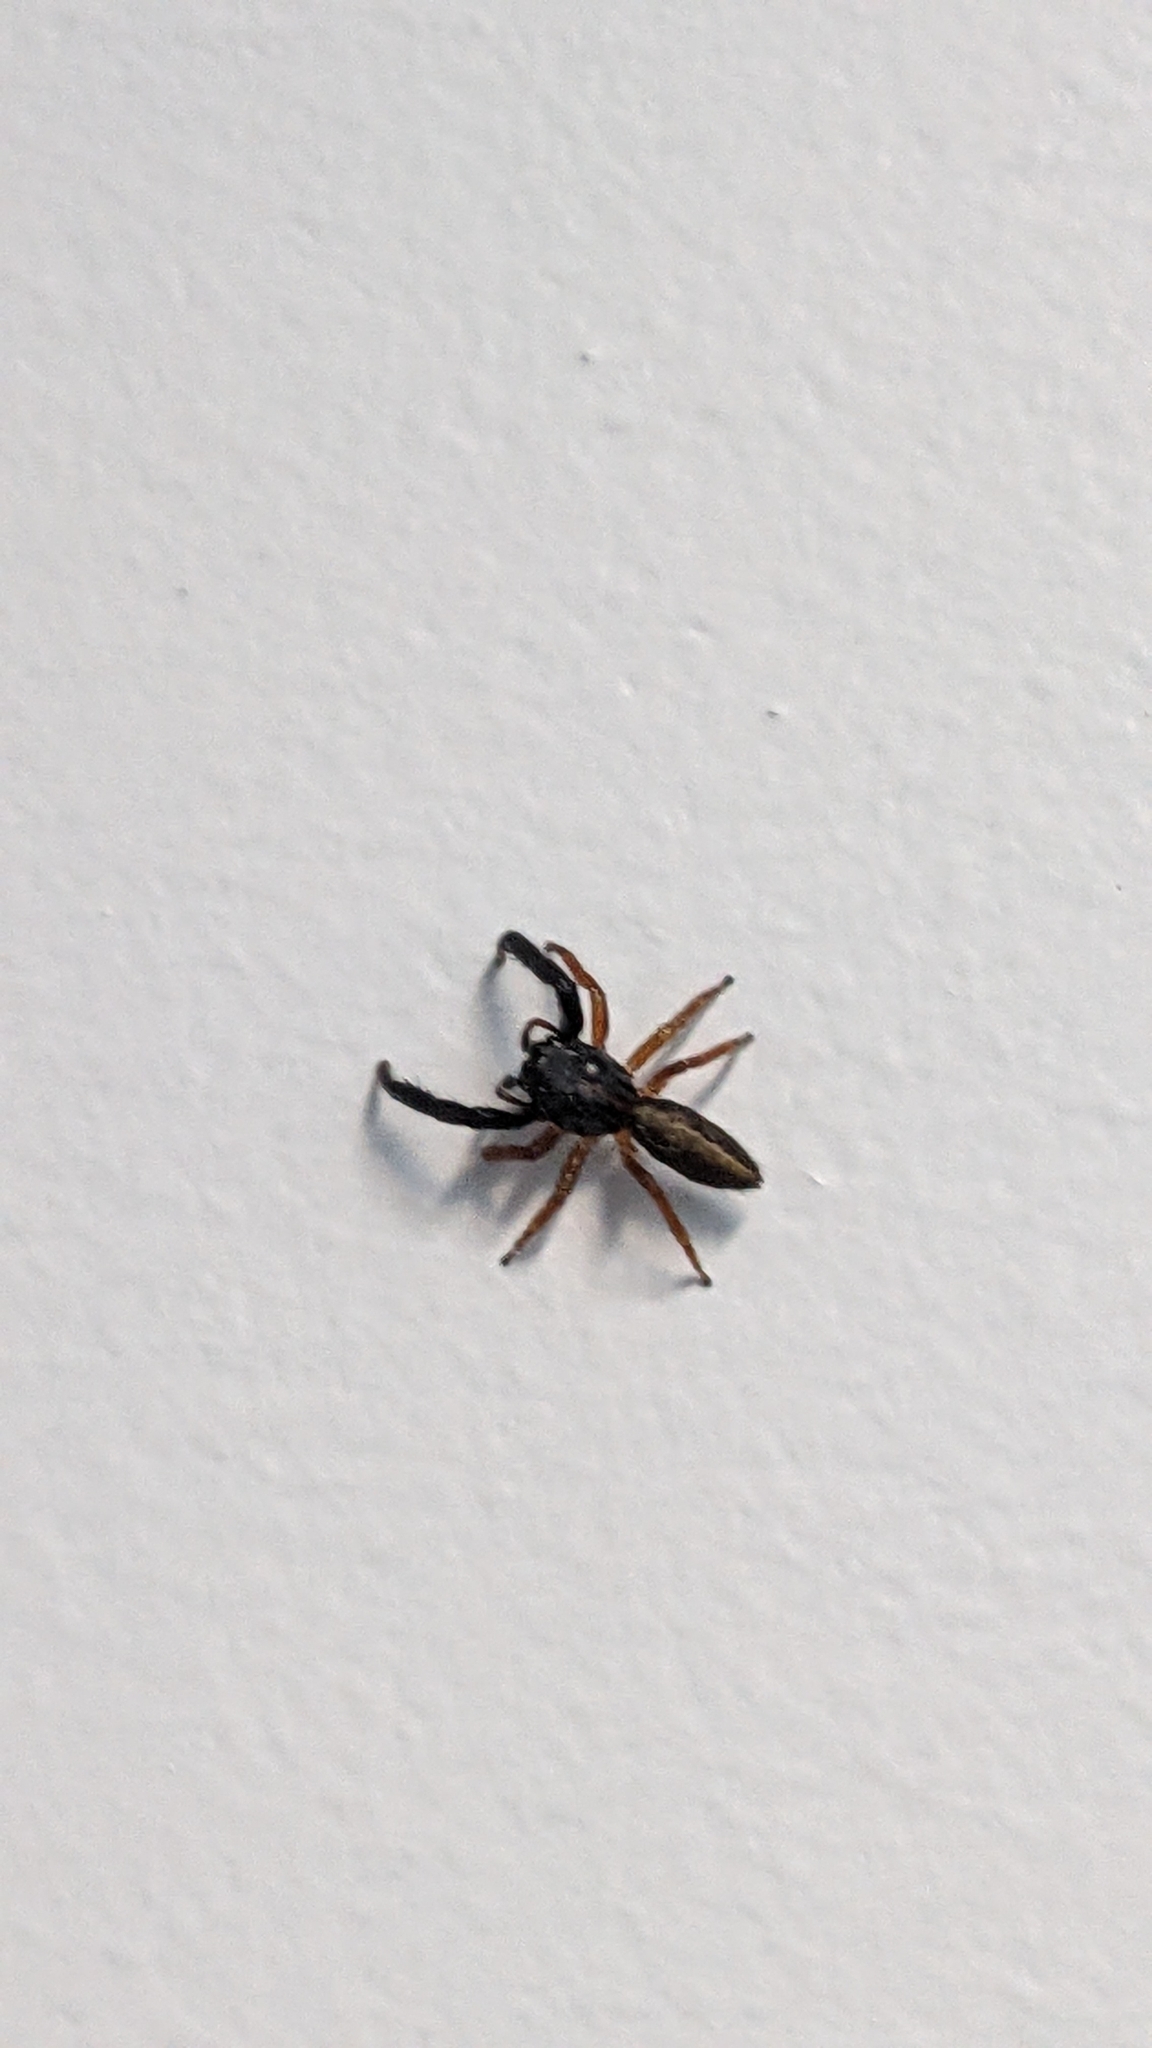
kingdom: Animalia
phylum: Arthropoda
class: Arachnida
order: Araneae
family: Salticidae
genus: Trite
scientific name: Trite planiceps
